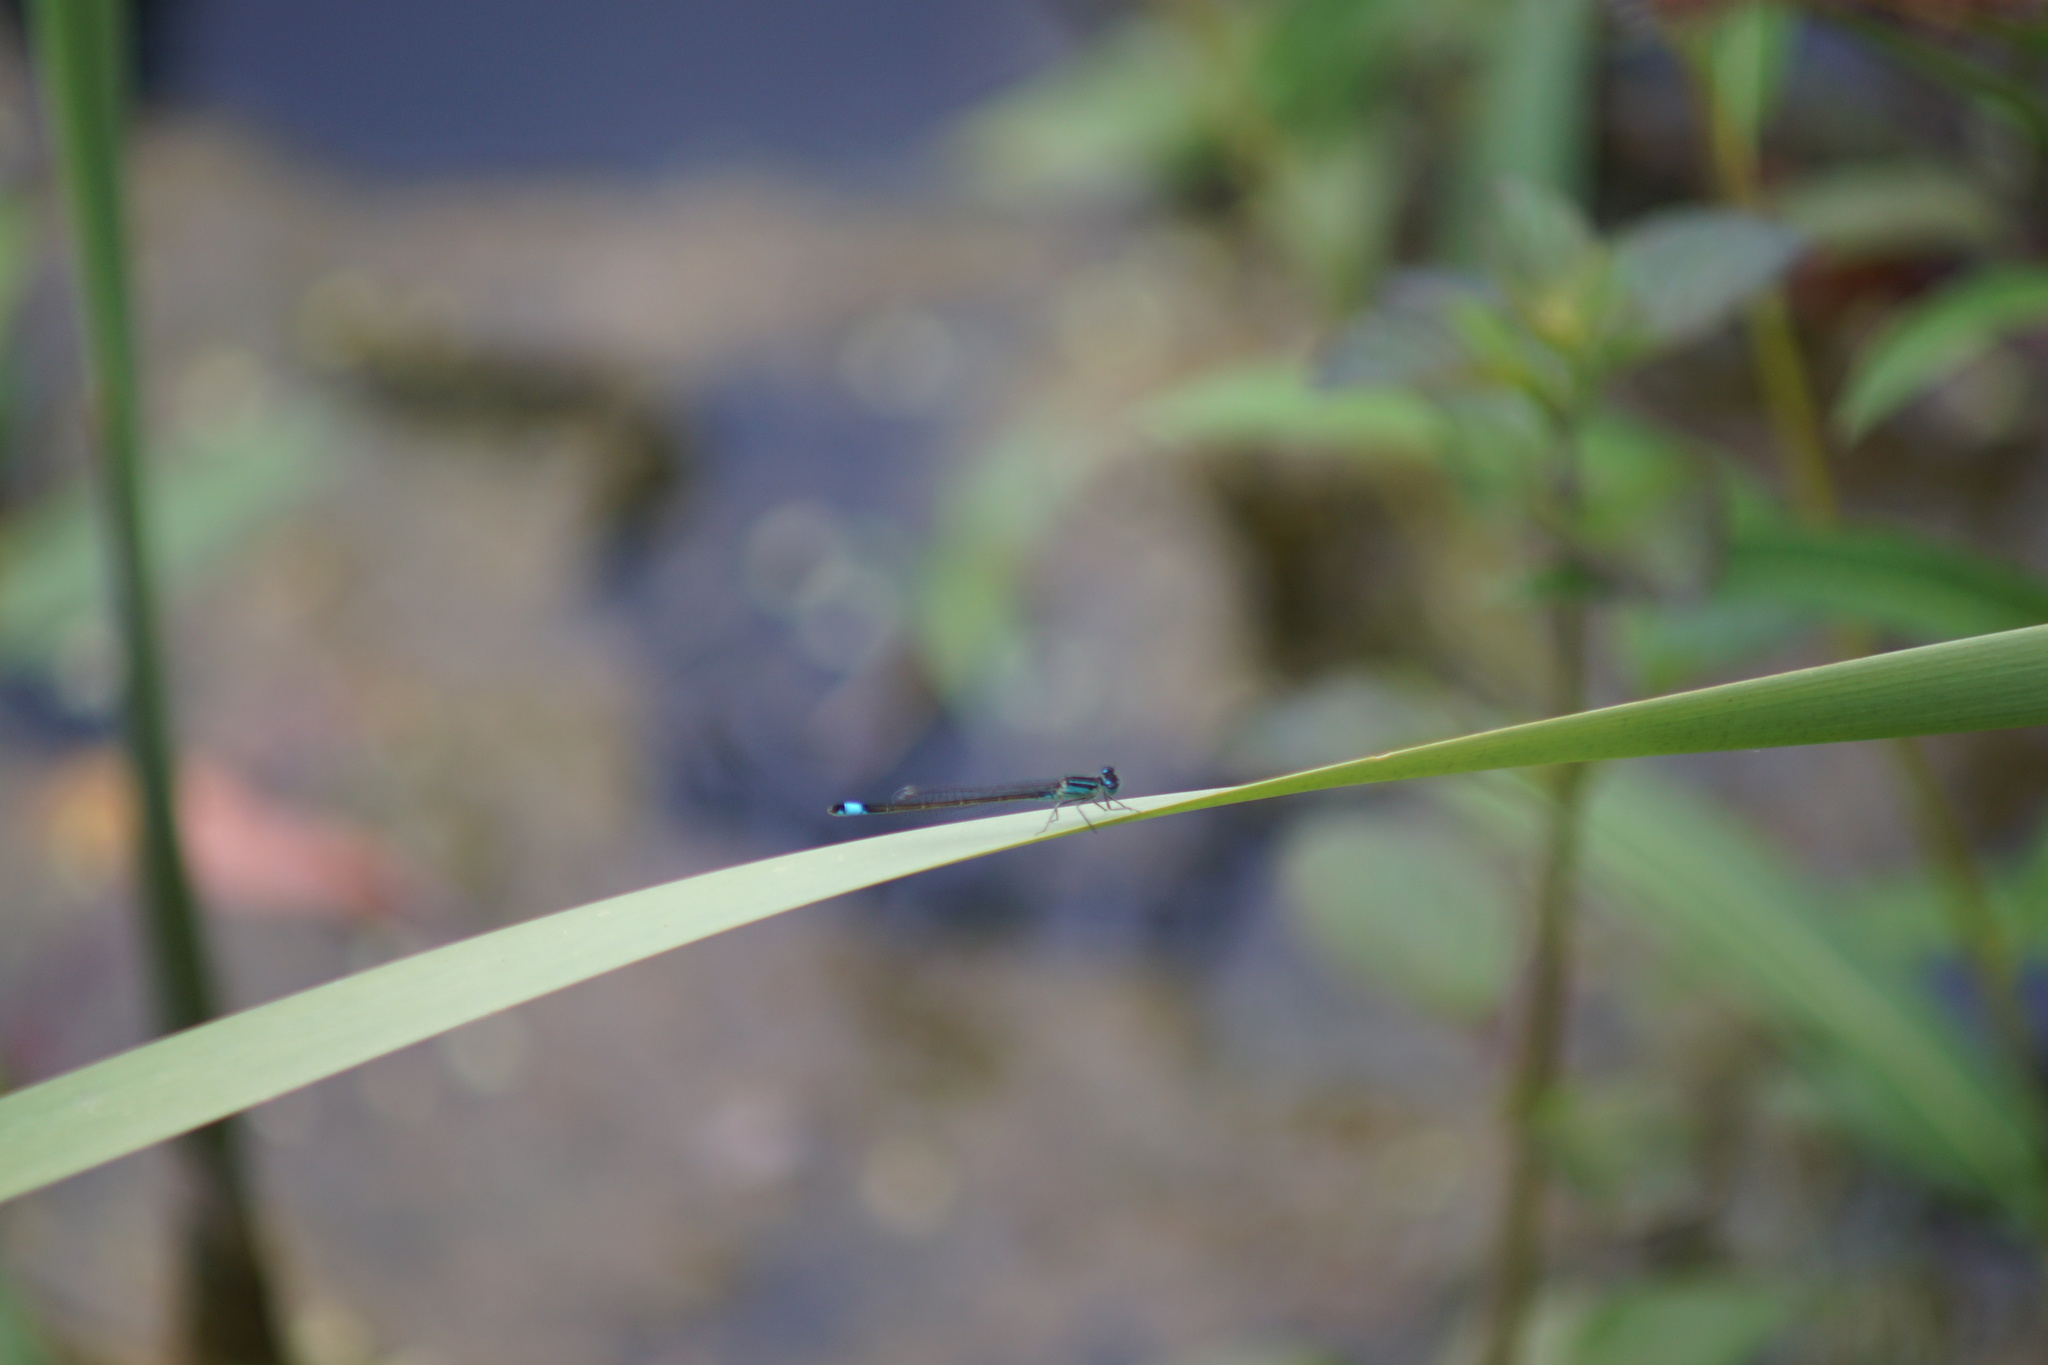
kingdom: Animalia
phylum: Arthropoda
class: Insecta
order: Odonata
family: Coenagrionidae
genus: Ischnura
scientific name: Ischnura elegans
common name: Blue-tailed damselfly
